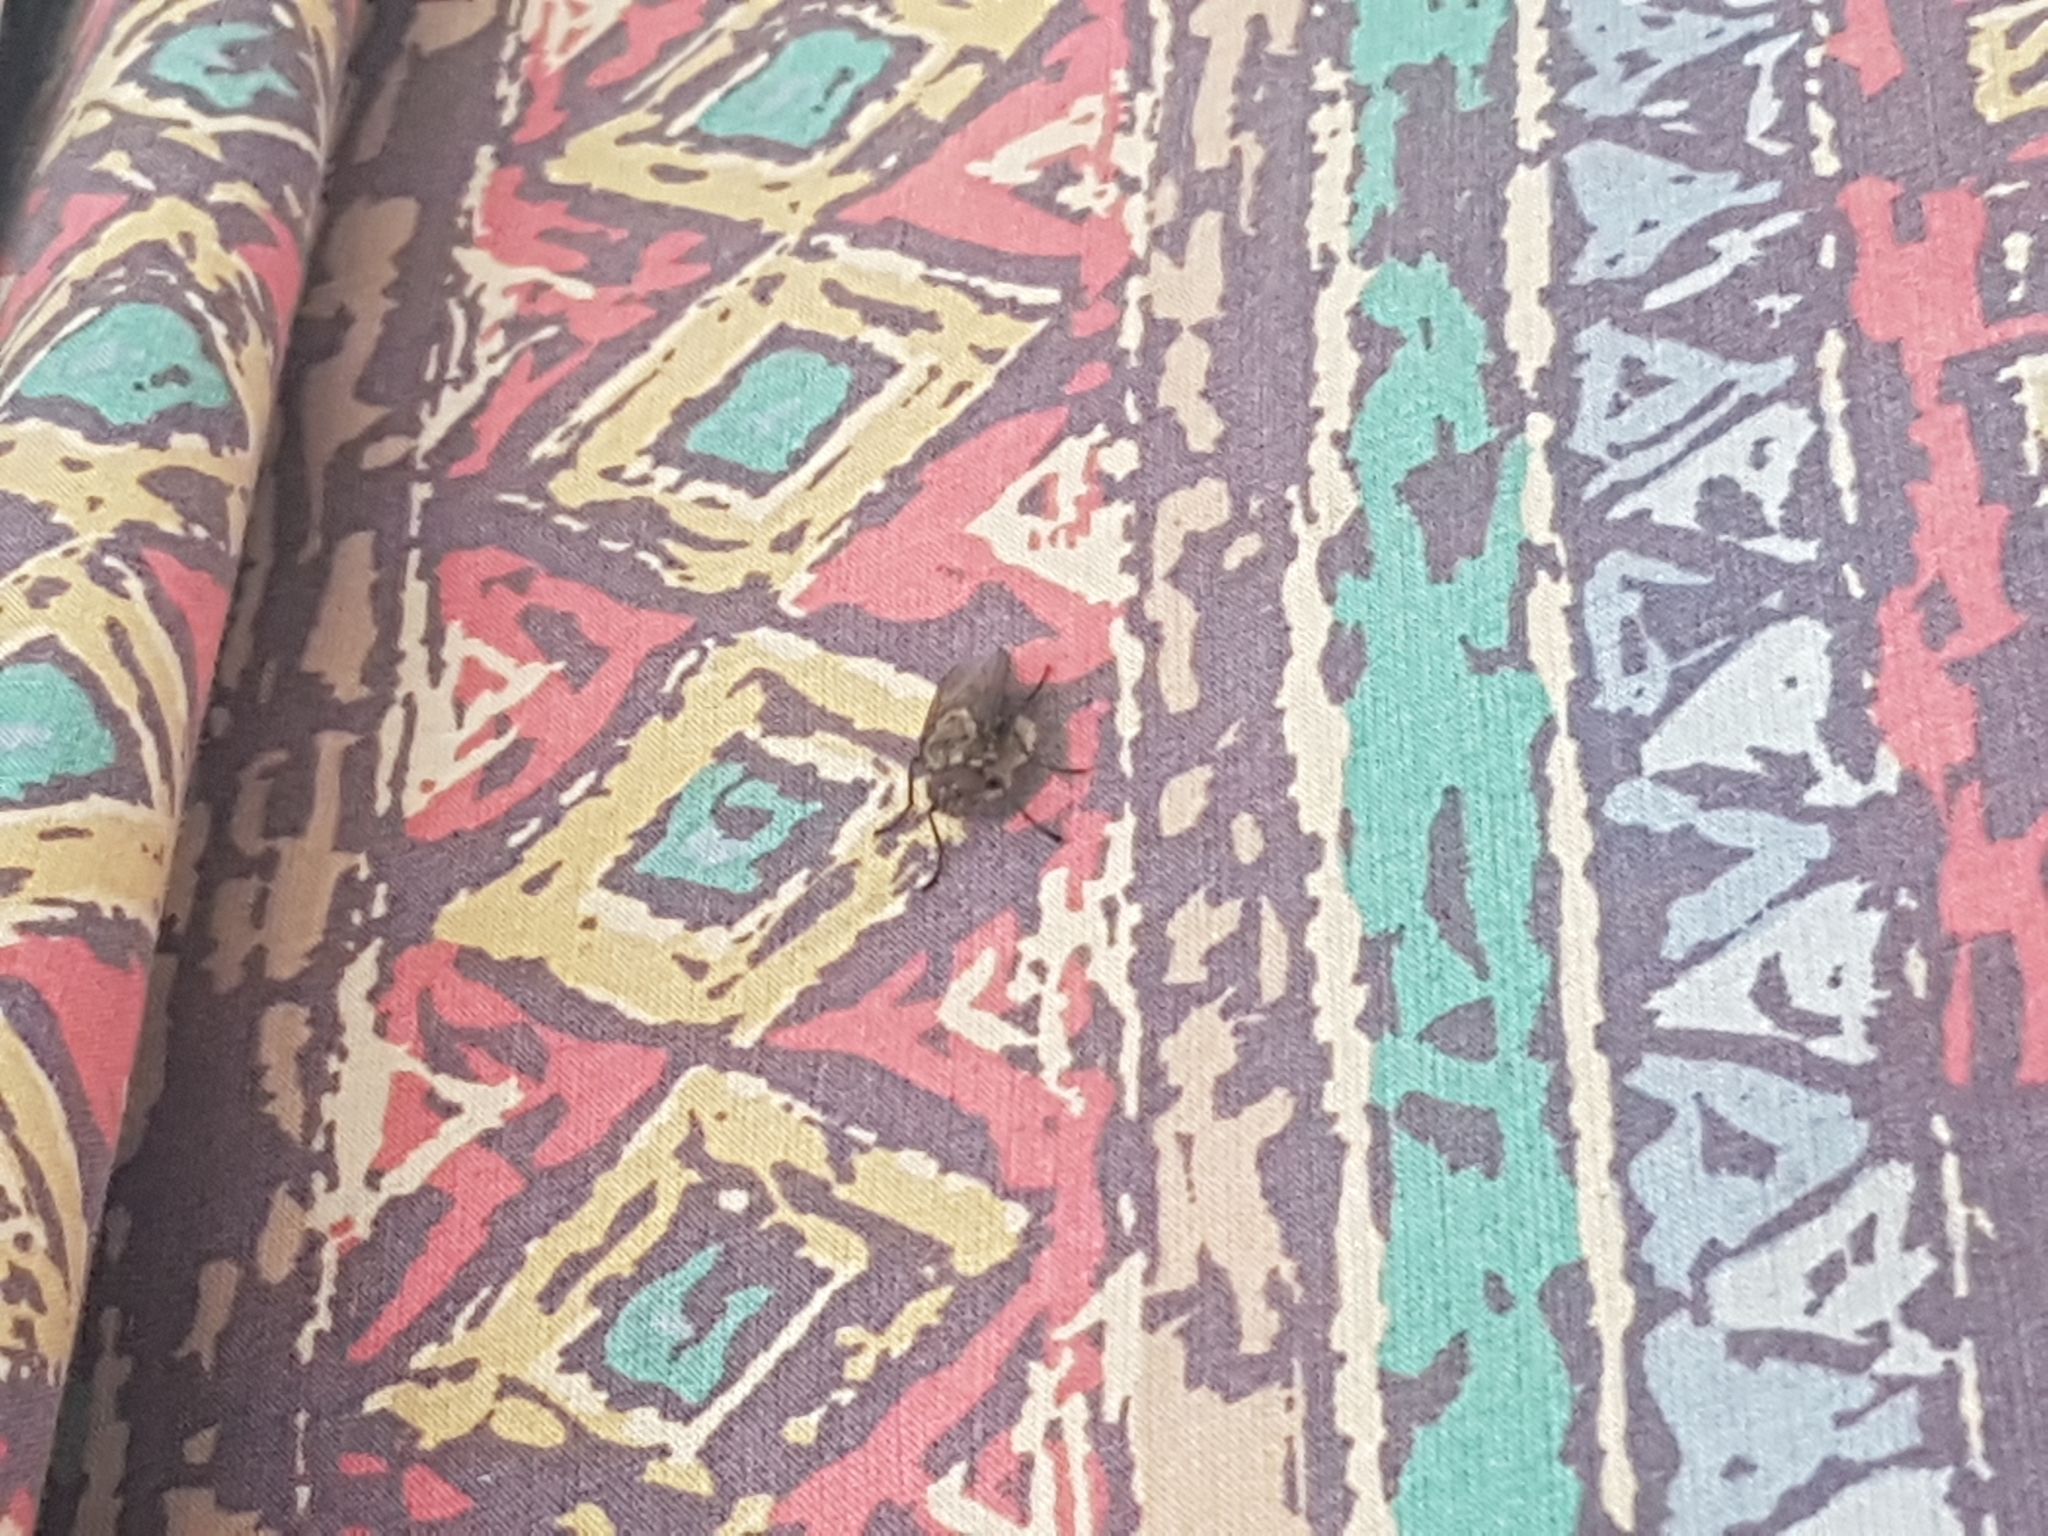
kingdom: Animalia
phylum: Arthropoda
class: Insecta
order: Diptera
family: Polleniidae
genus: Pollenia
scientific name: Pollenia
